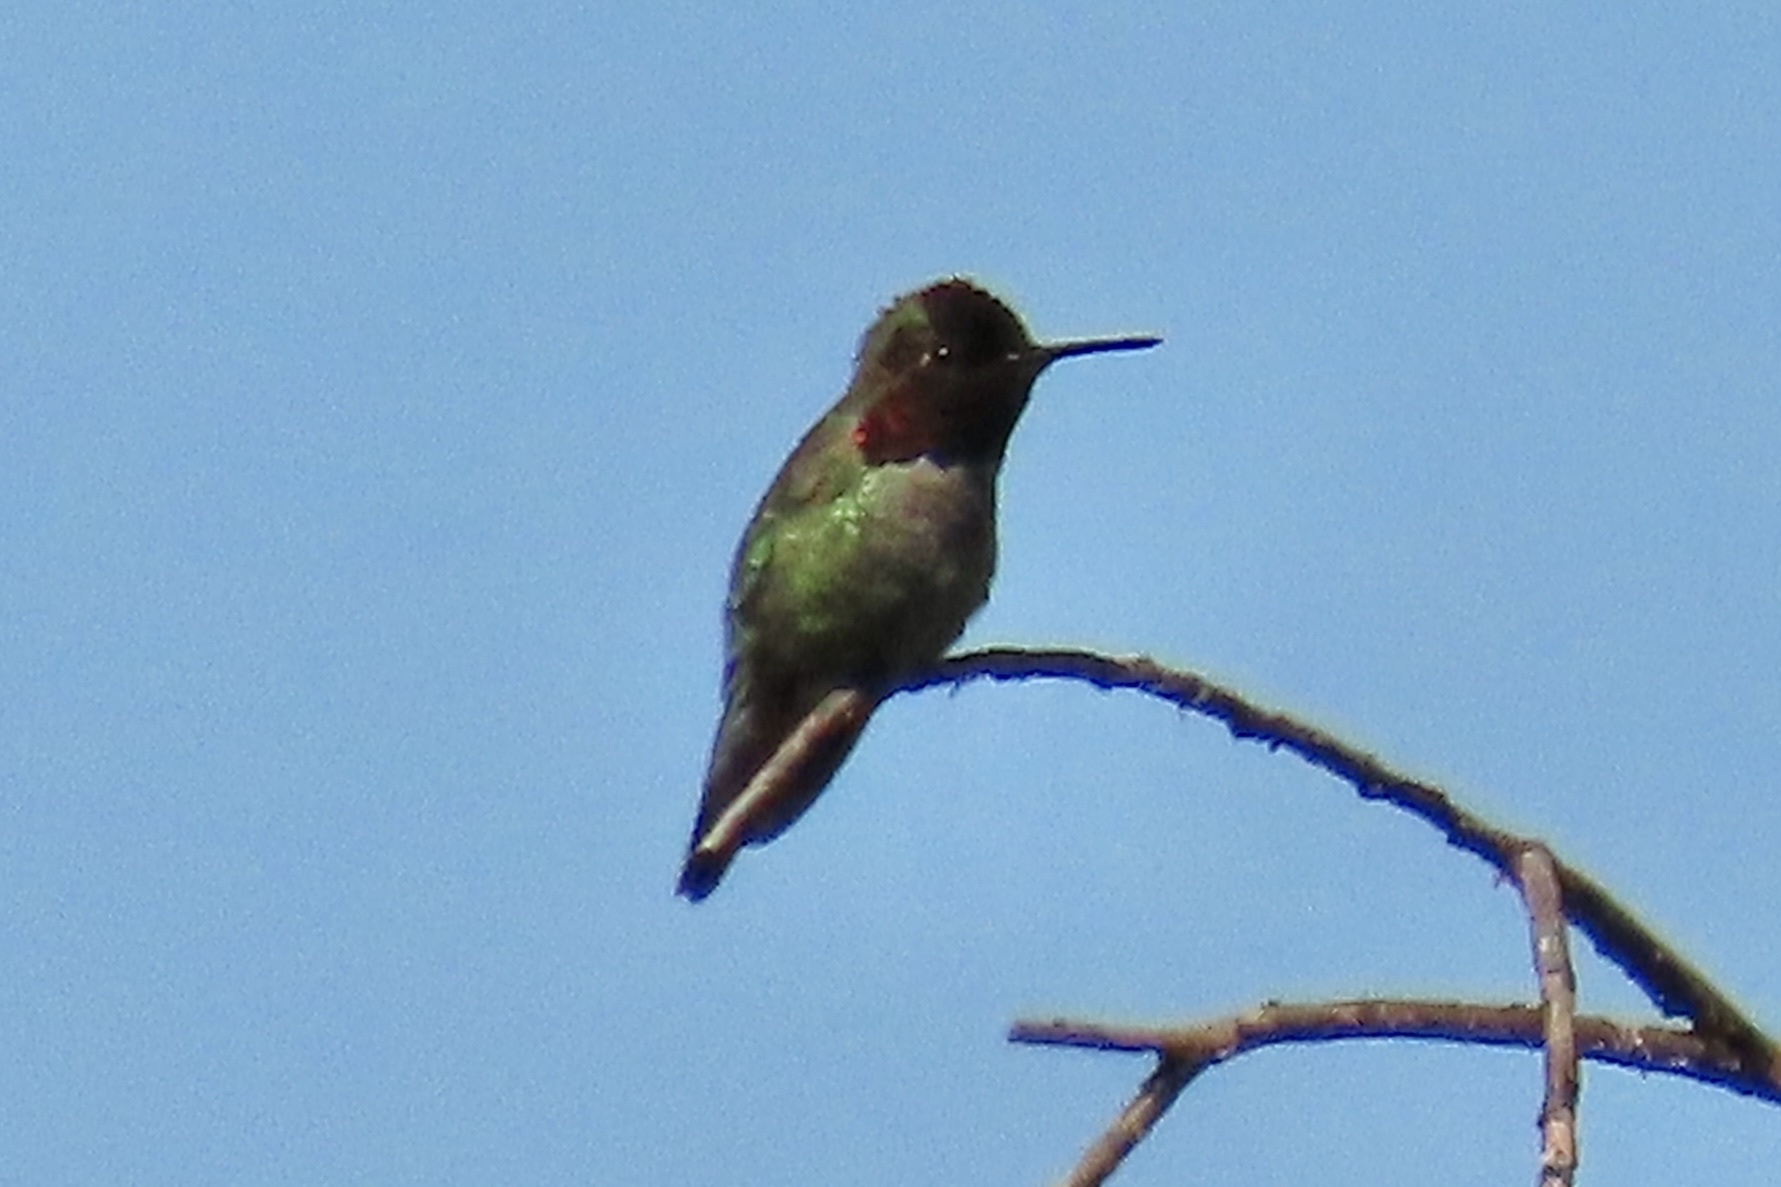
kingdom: Animalia
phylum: Chordata
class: Aves
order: Apodiformes
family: Trochilidae
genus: Calypte
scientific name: Calypte anna
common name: Anna's hummingbird
